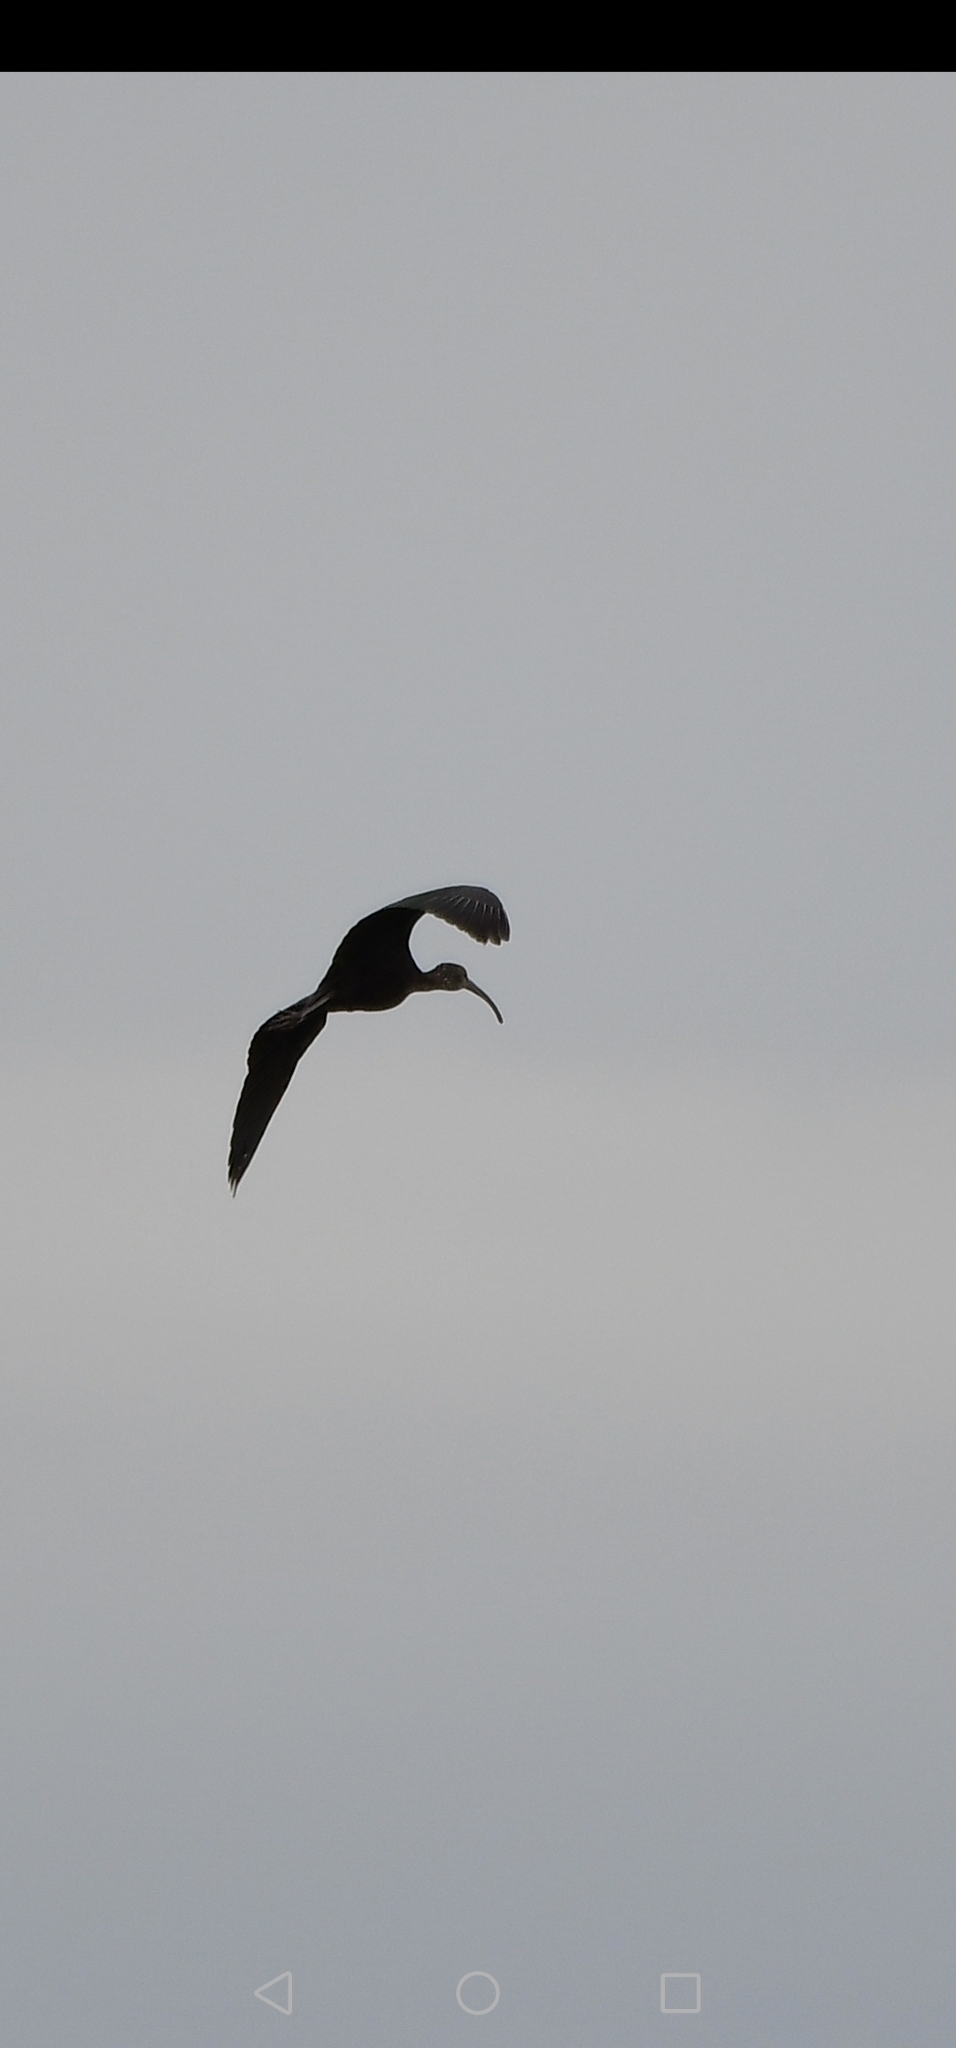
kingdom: Animalia
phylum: Chordata
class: Aves
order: Pelecaniformes
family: Threskiornithidae
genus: Plegadis
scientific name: Plegadis falcinellus
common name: Glossy ibis
